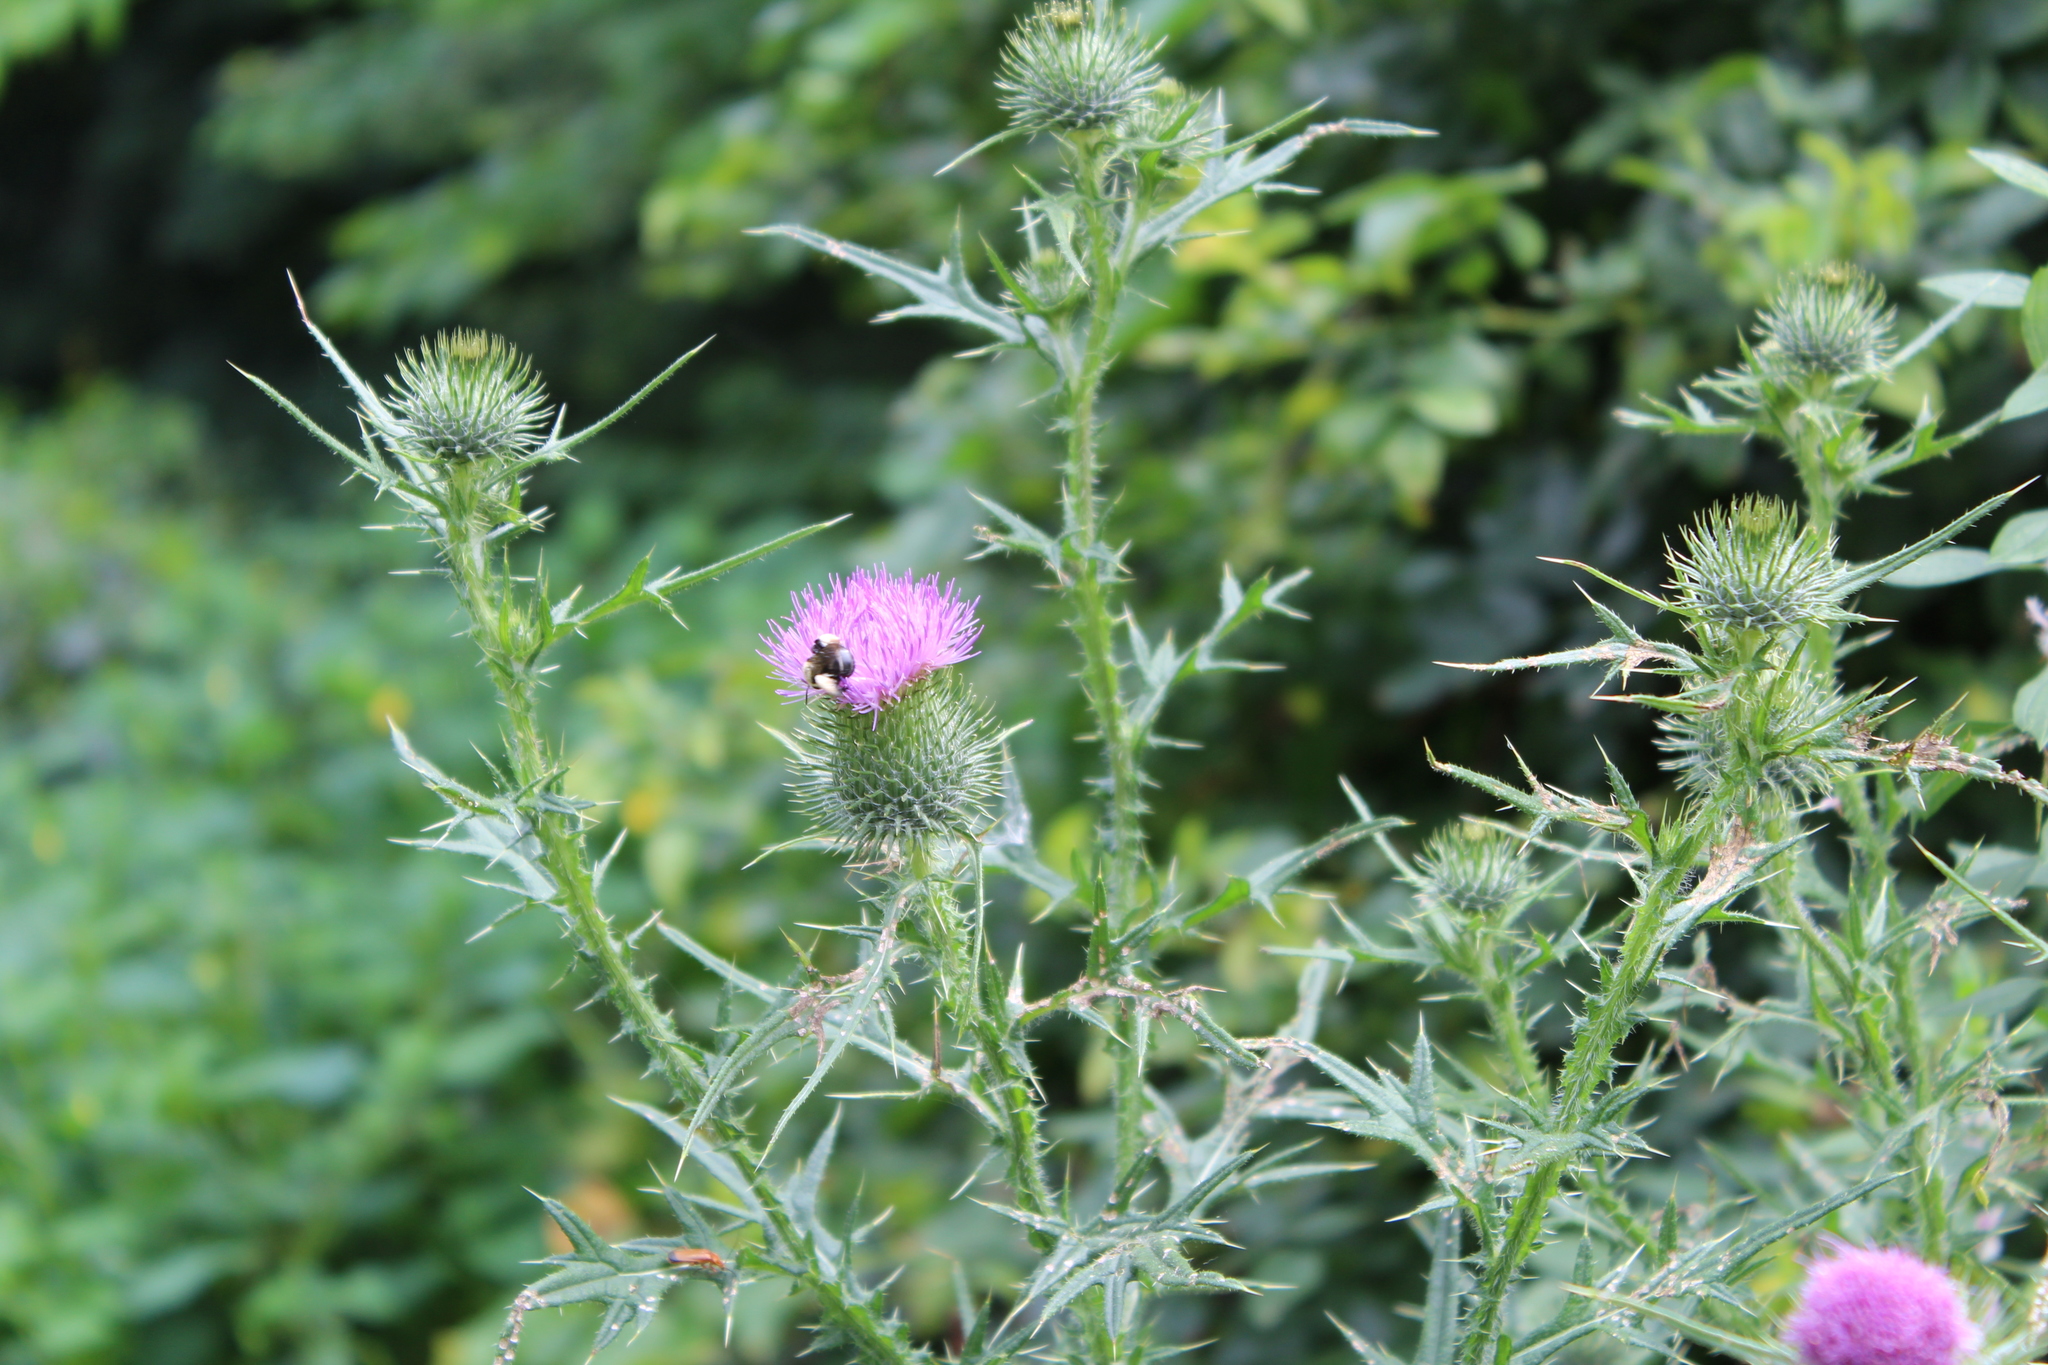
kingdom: Plantae
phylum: Tracheophyta
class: Magnoliopsida
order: Asterales
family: Asteraceae
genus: Cirsium
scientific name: Cirsium vulgare
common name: Bull thistle
